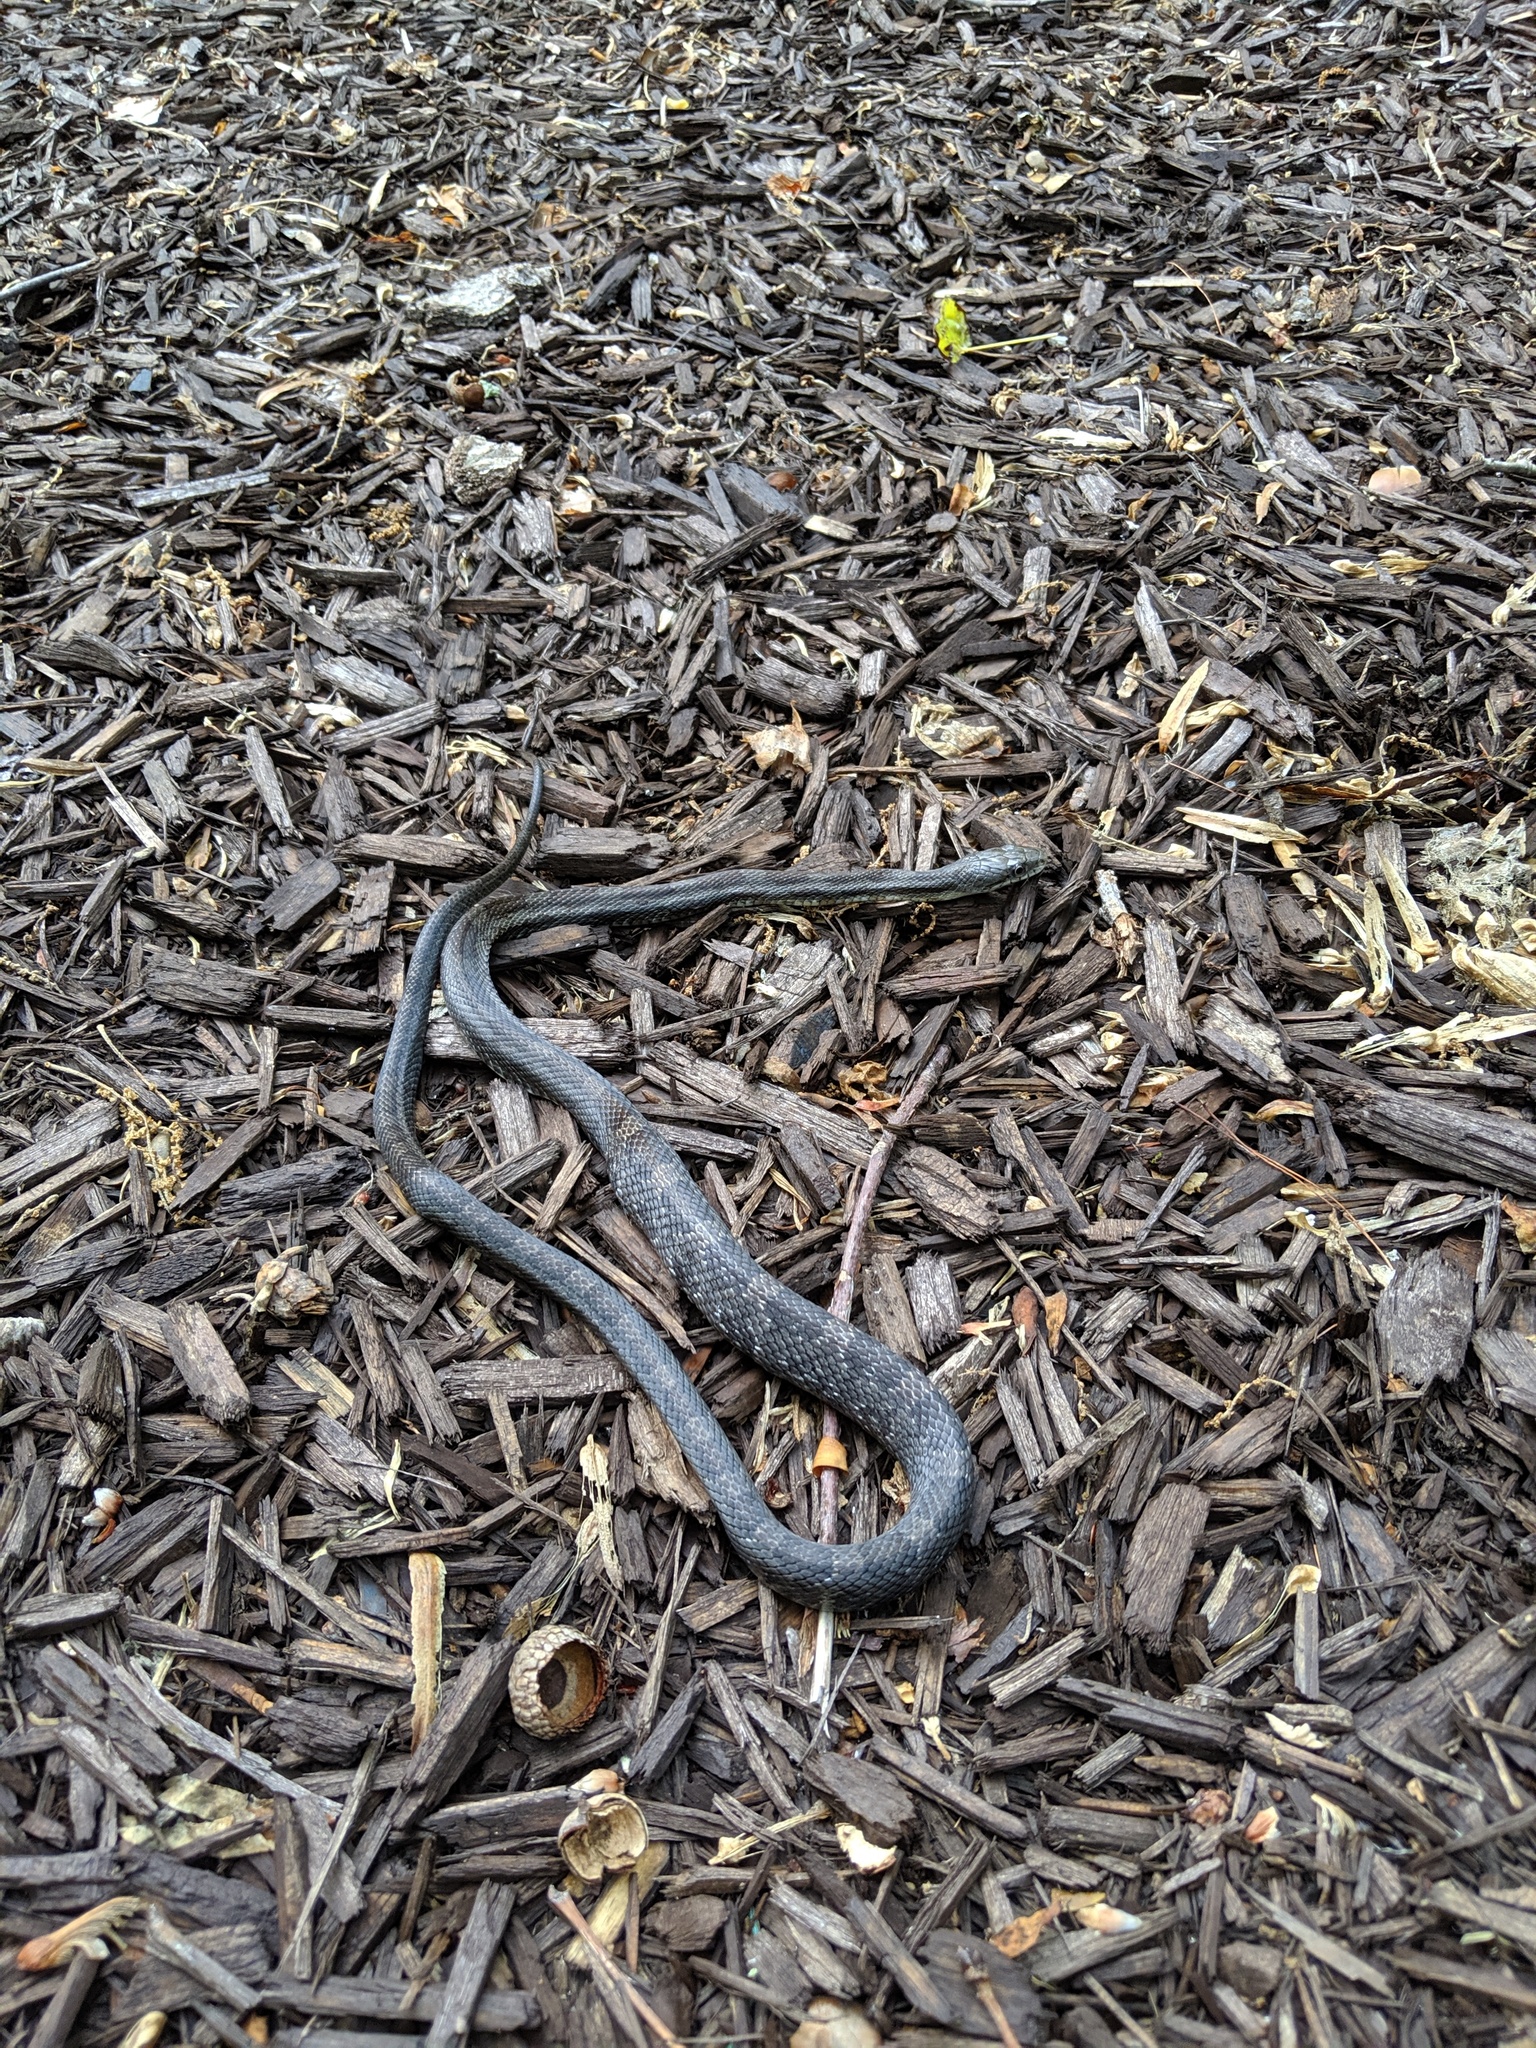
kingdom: Animalia
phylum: Chordata
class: Squamata
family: Colubridae
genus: Pantherophis
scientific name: Pantherophis alleghaniensis
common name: Eastern rat snake
